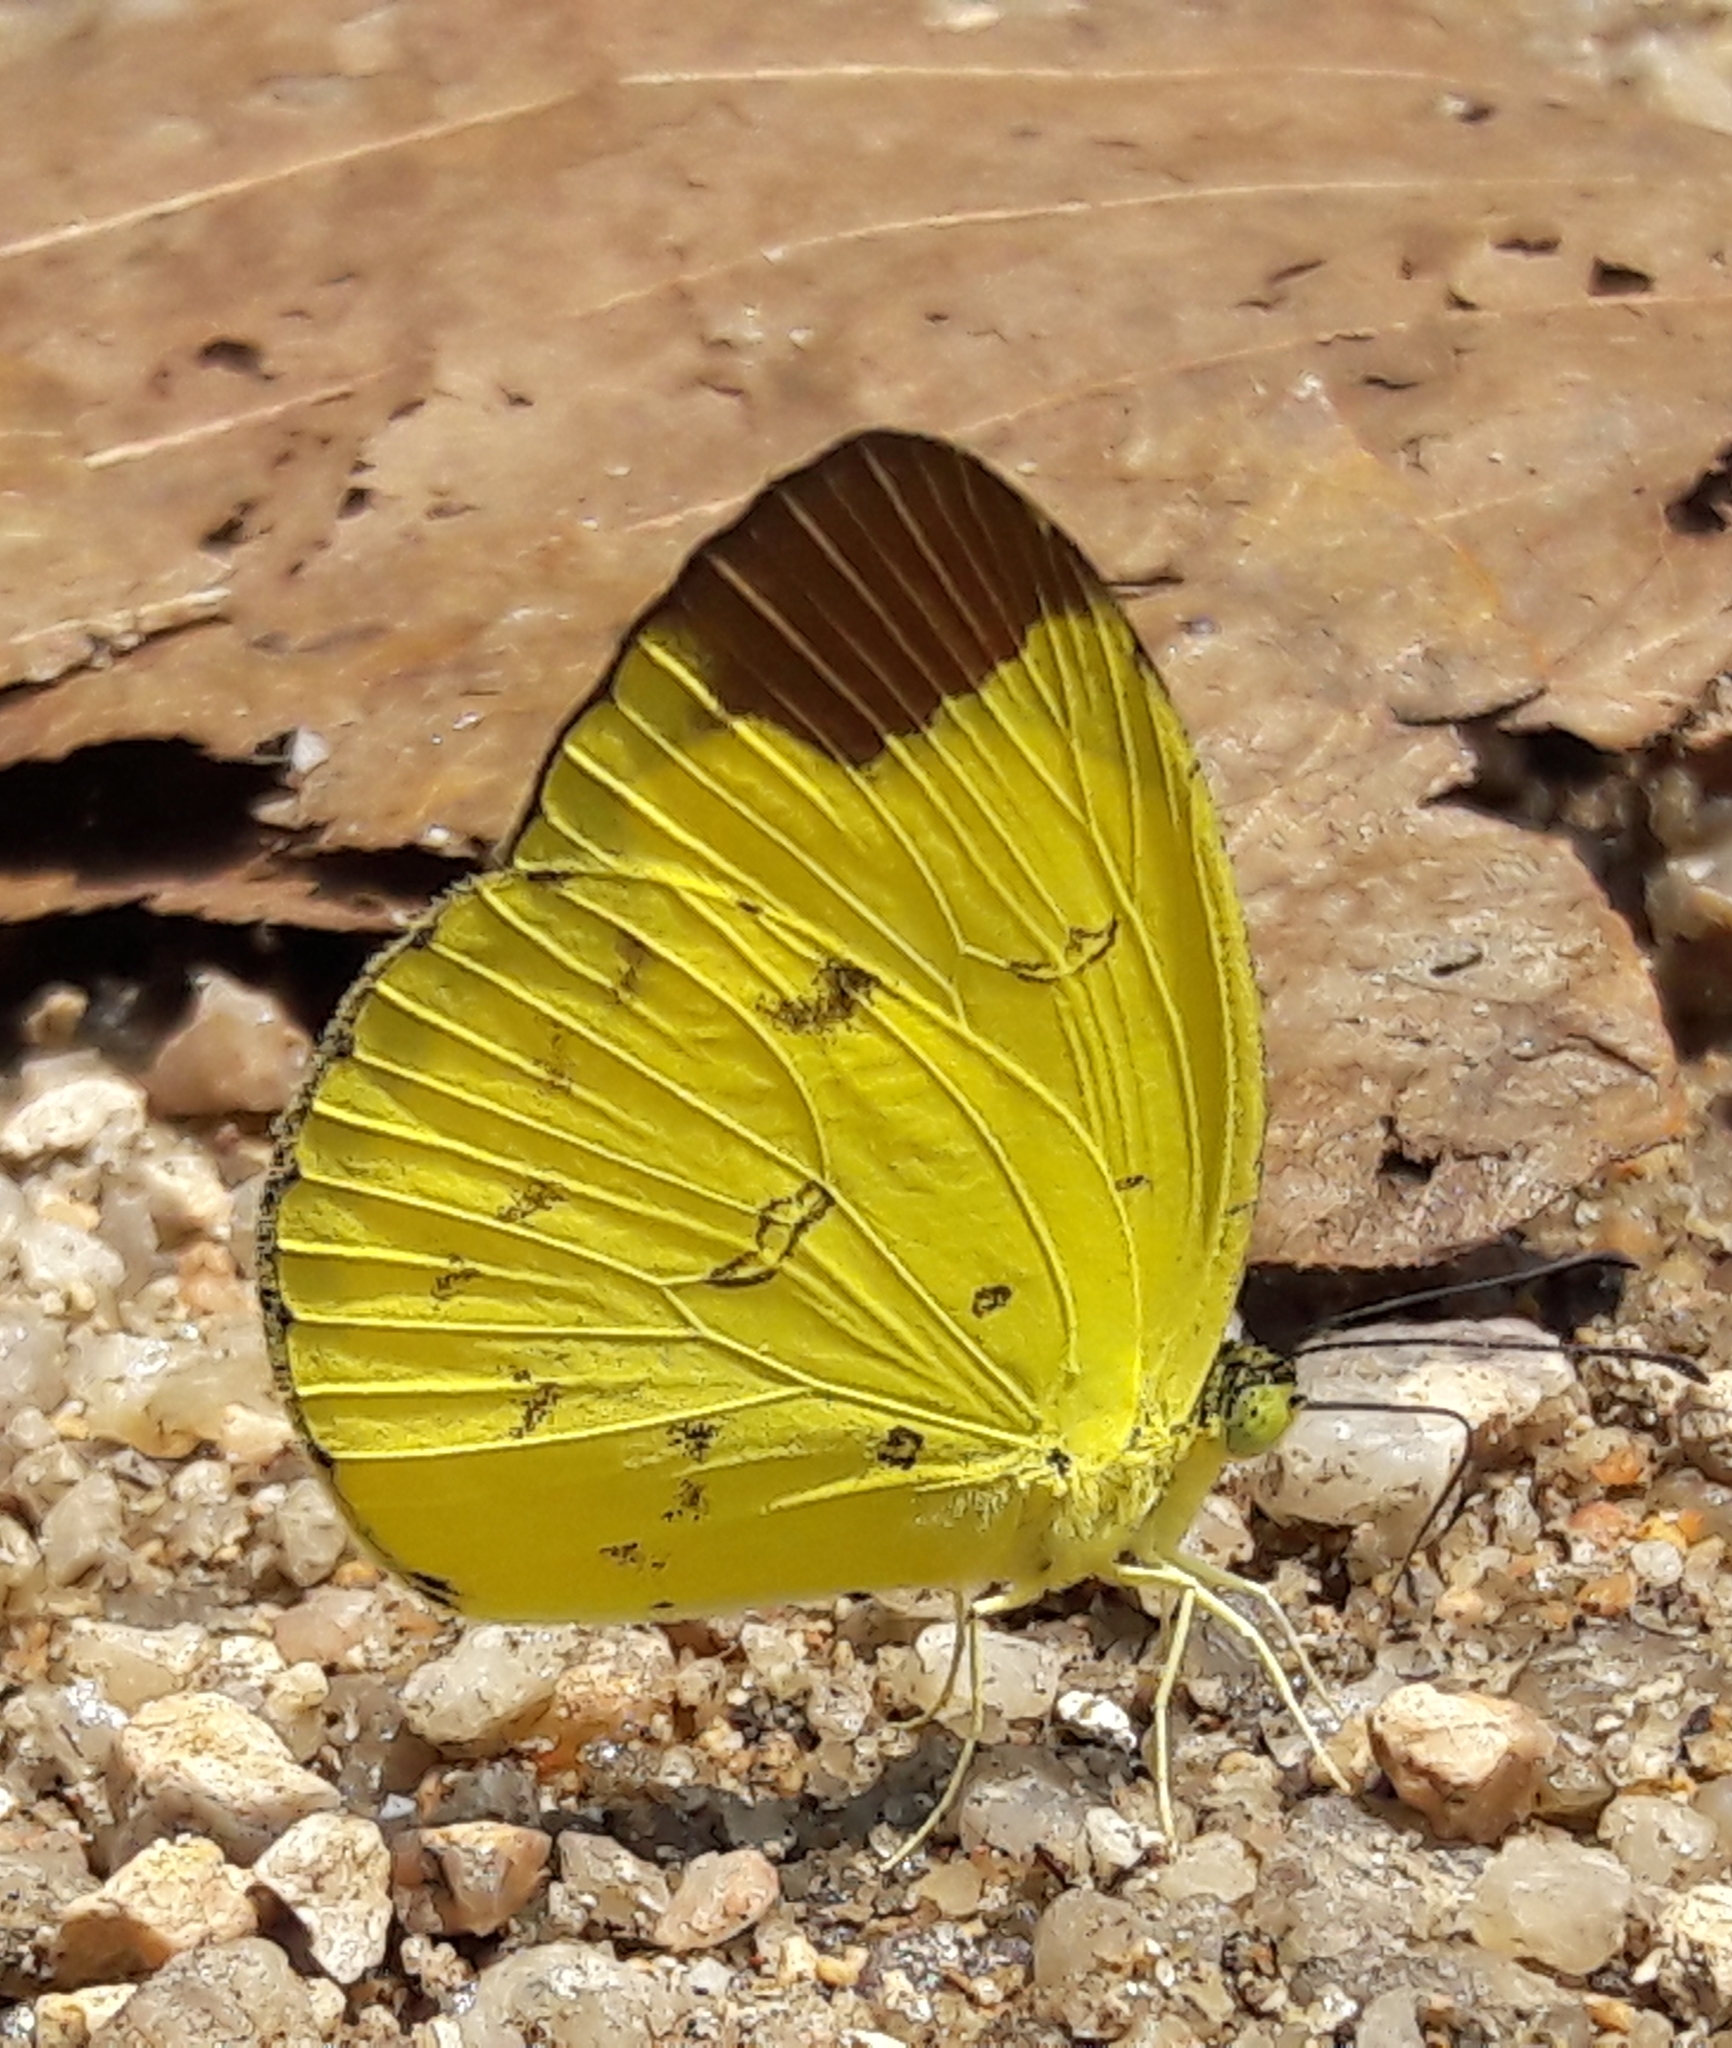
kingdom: Animalia
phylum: Arthropoda
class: Insecta
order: Lepidoptera
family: Pieridae
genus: Eurema
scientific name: Eurema sari
